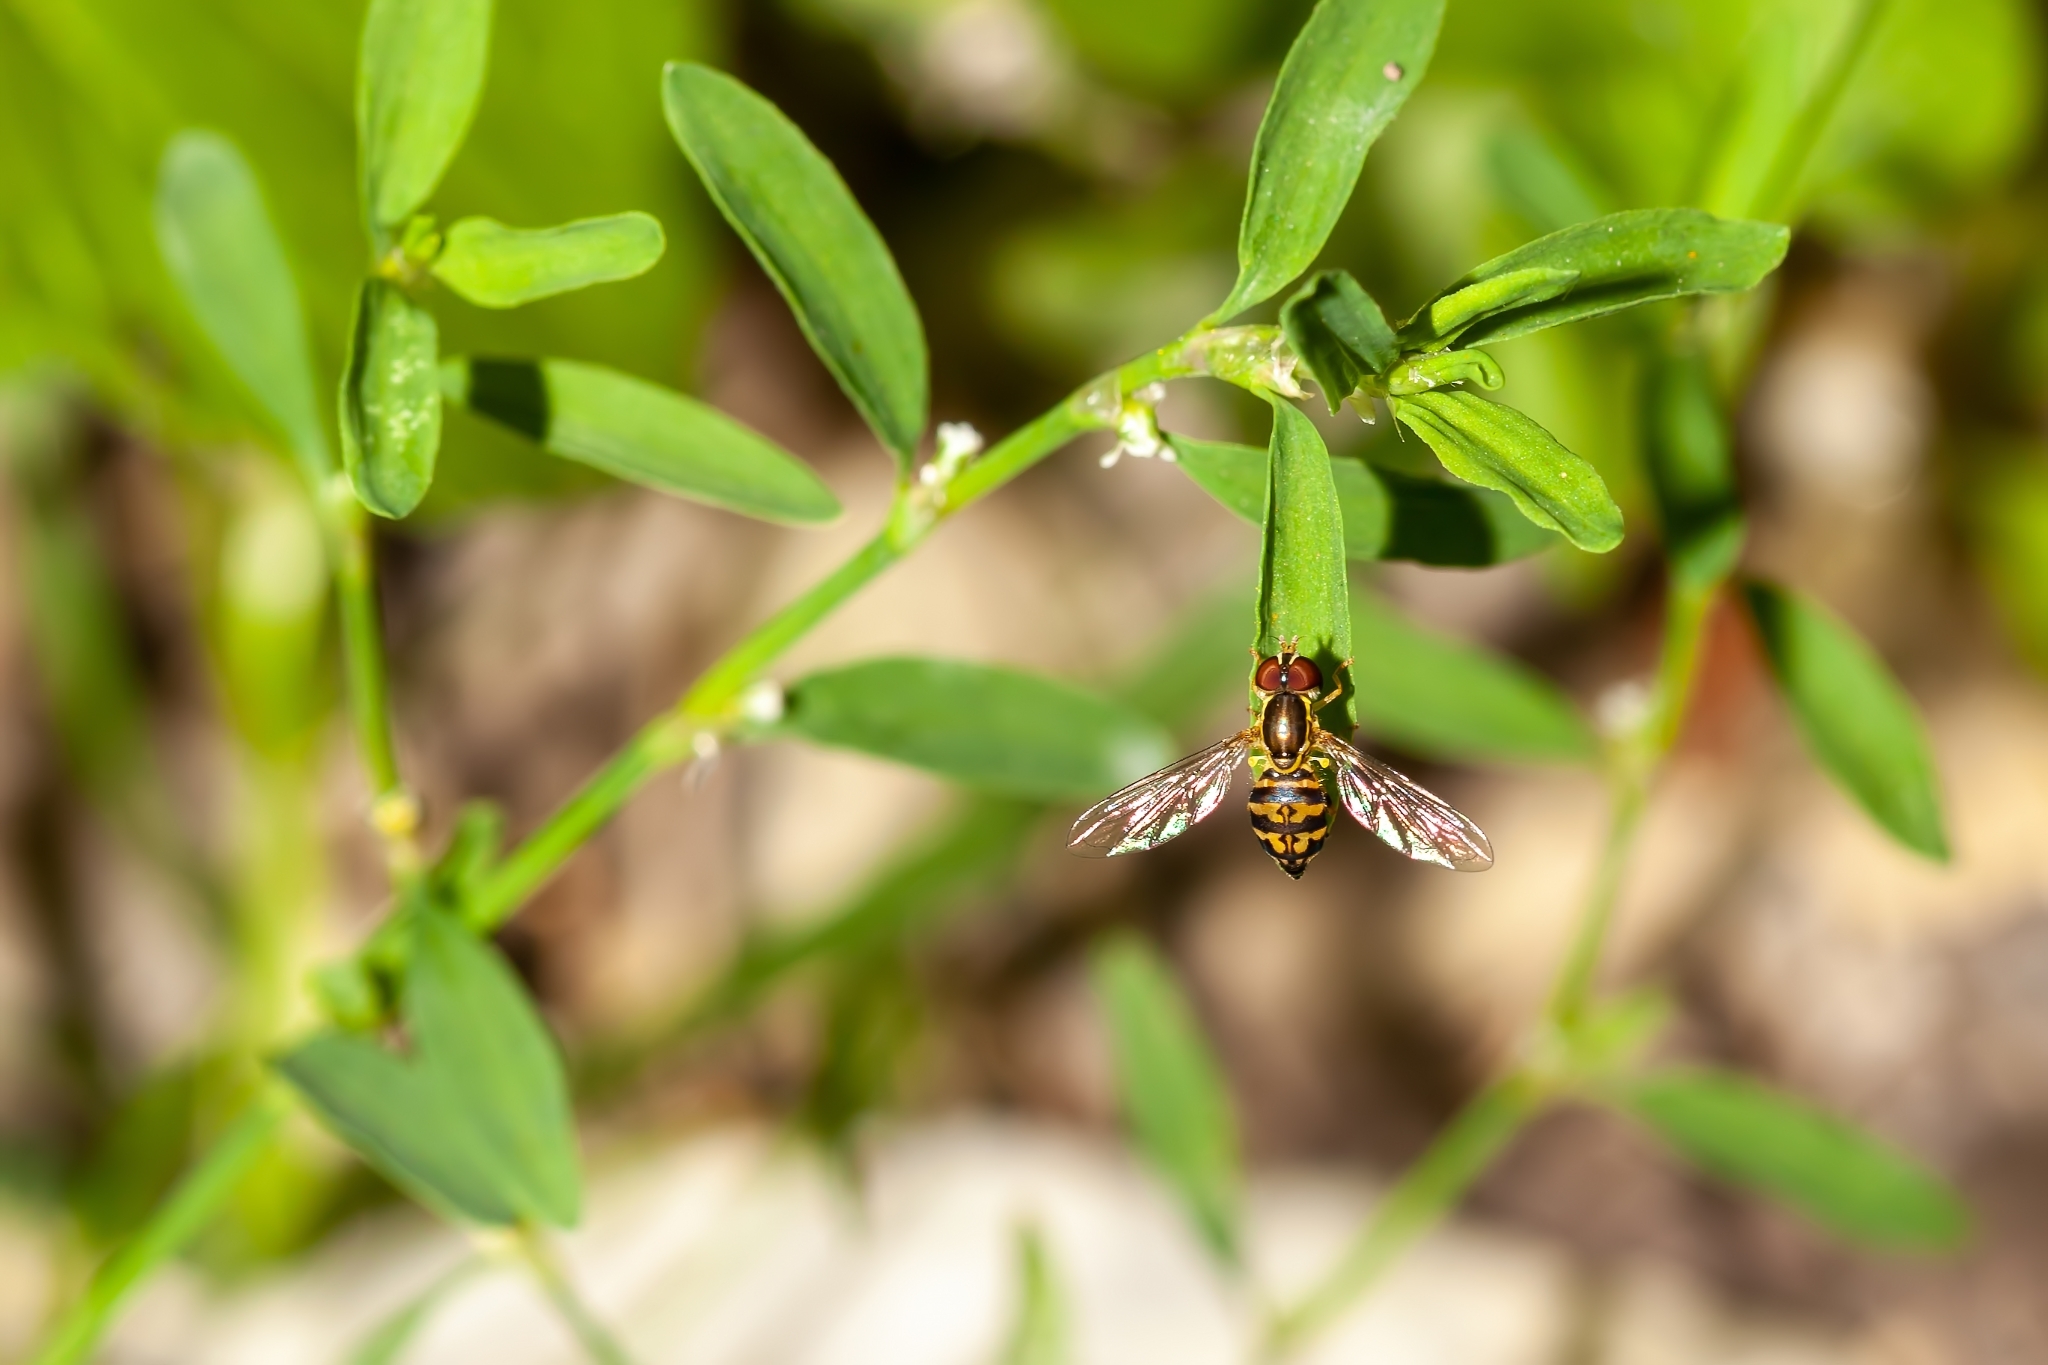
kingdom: Animalia
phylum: Arthropoda
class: Insecta
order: Diptera
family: Syrphidae
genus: Toxomerus
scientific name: Toxomerus geminatus
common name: Eastern calligrapher
